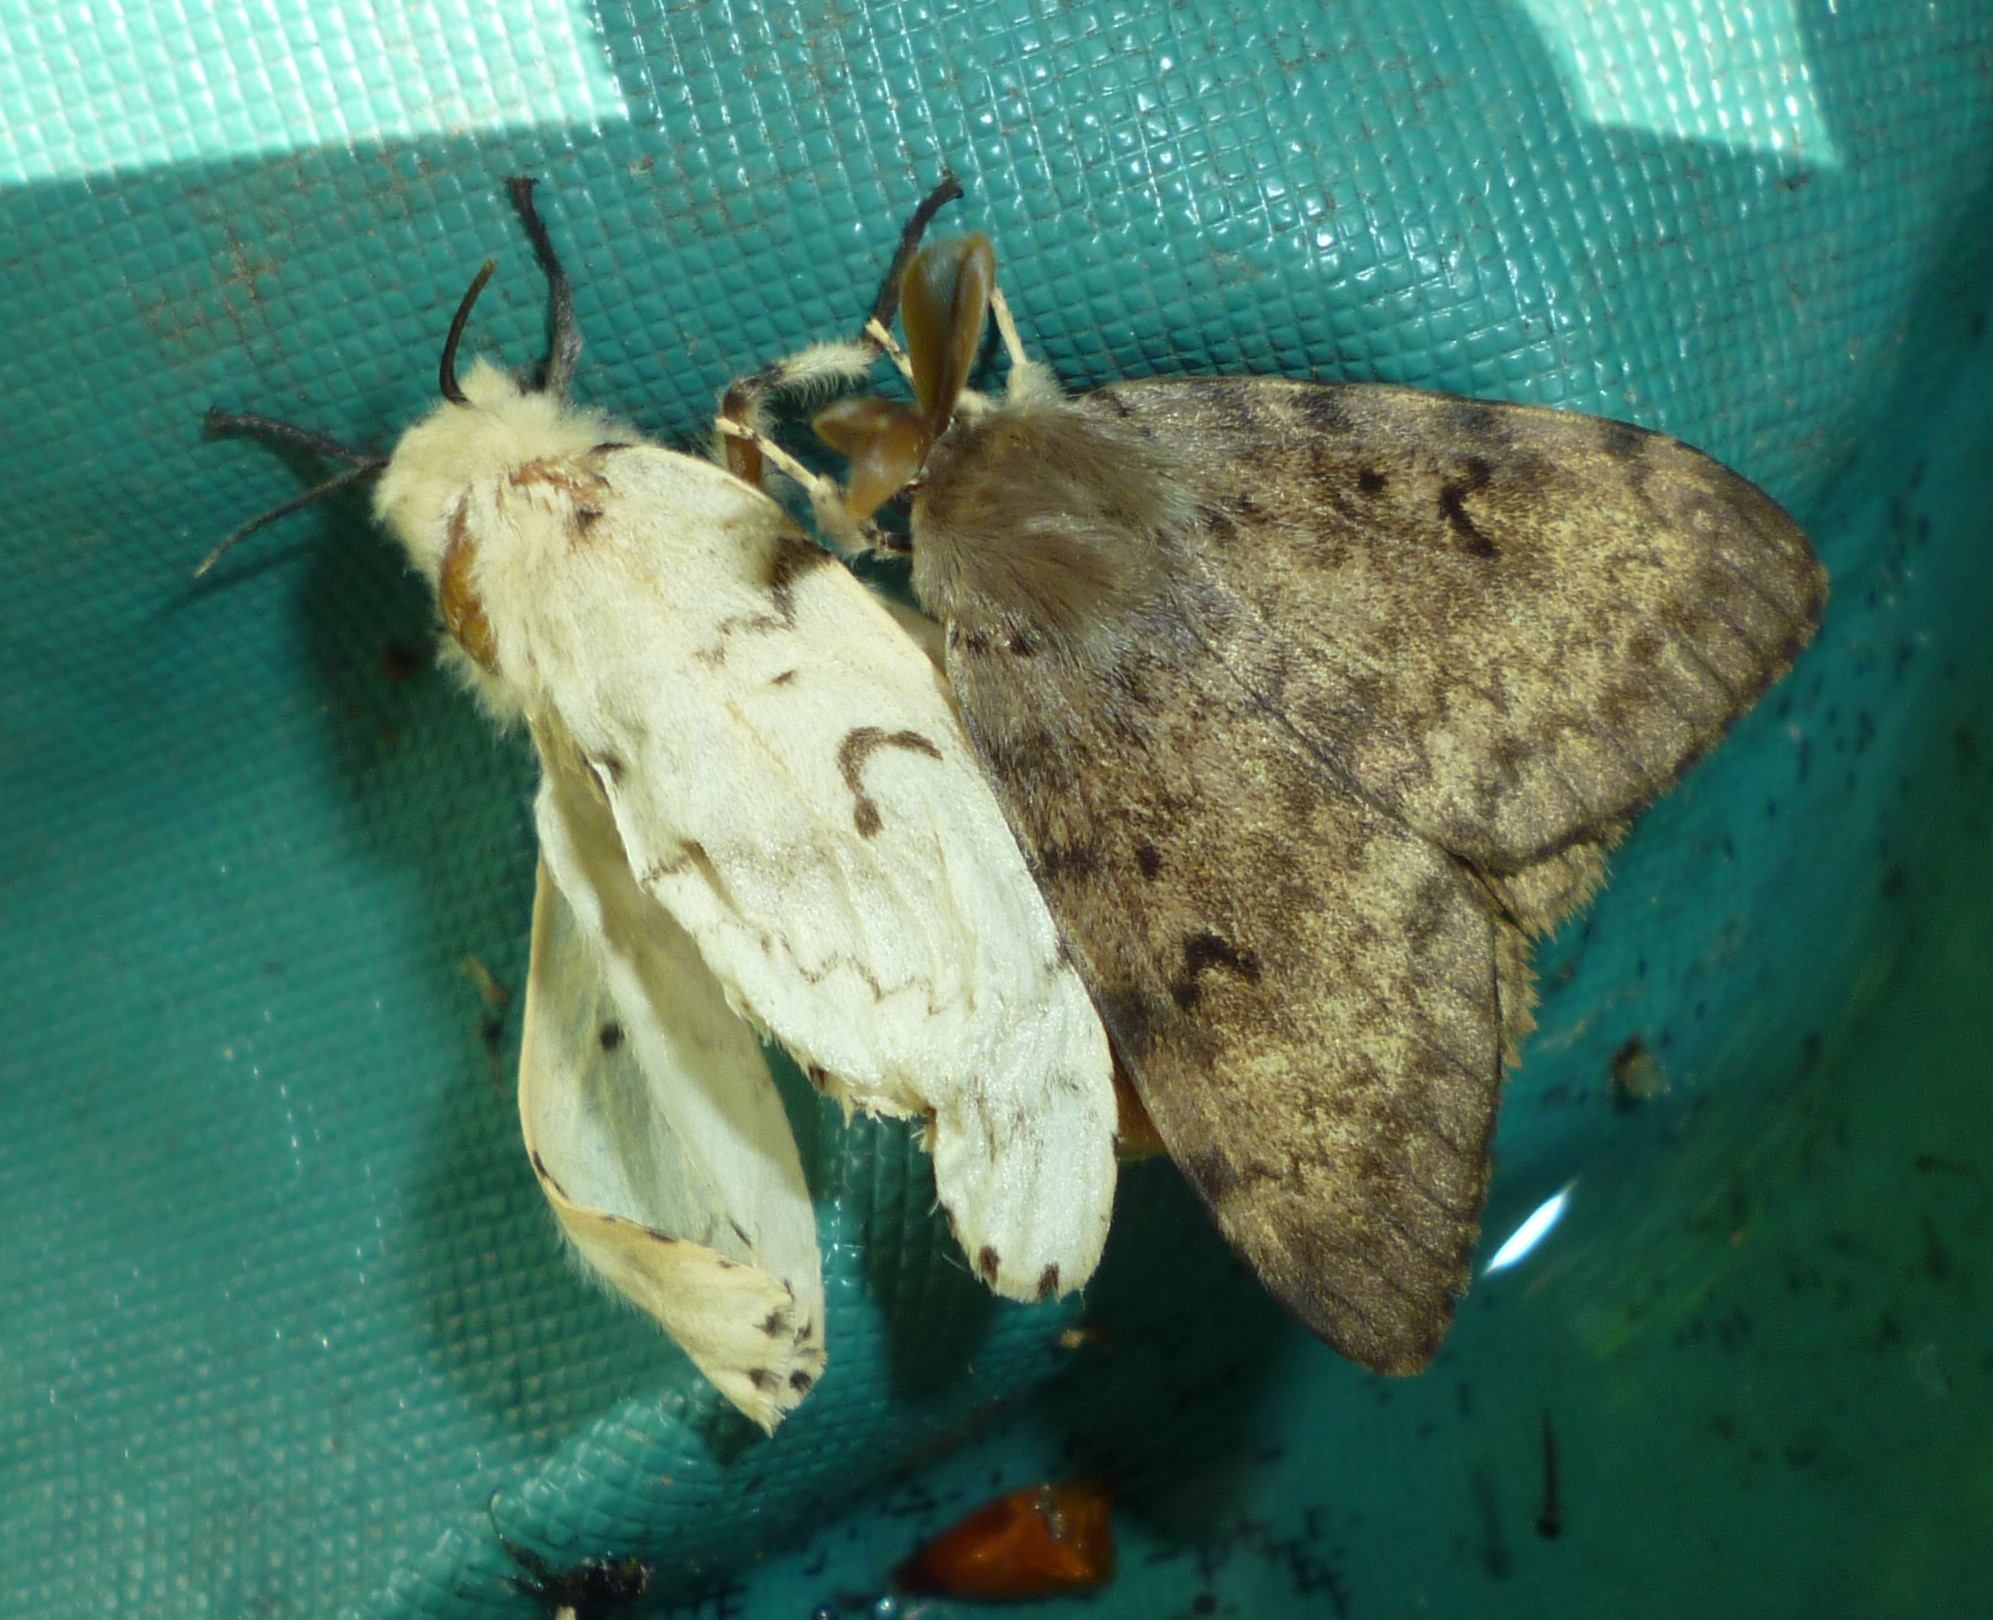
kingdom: Animalia
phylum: Arthropoda
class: Insecta
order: Lepidoptera
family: Erebidae
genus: Lymantria
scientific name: Lymantria dispar
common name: Gypsy moth
